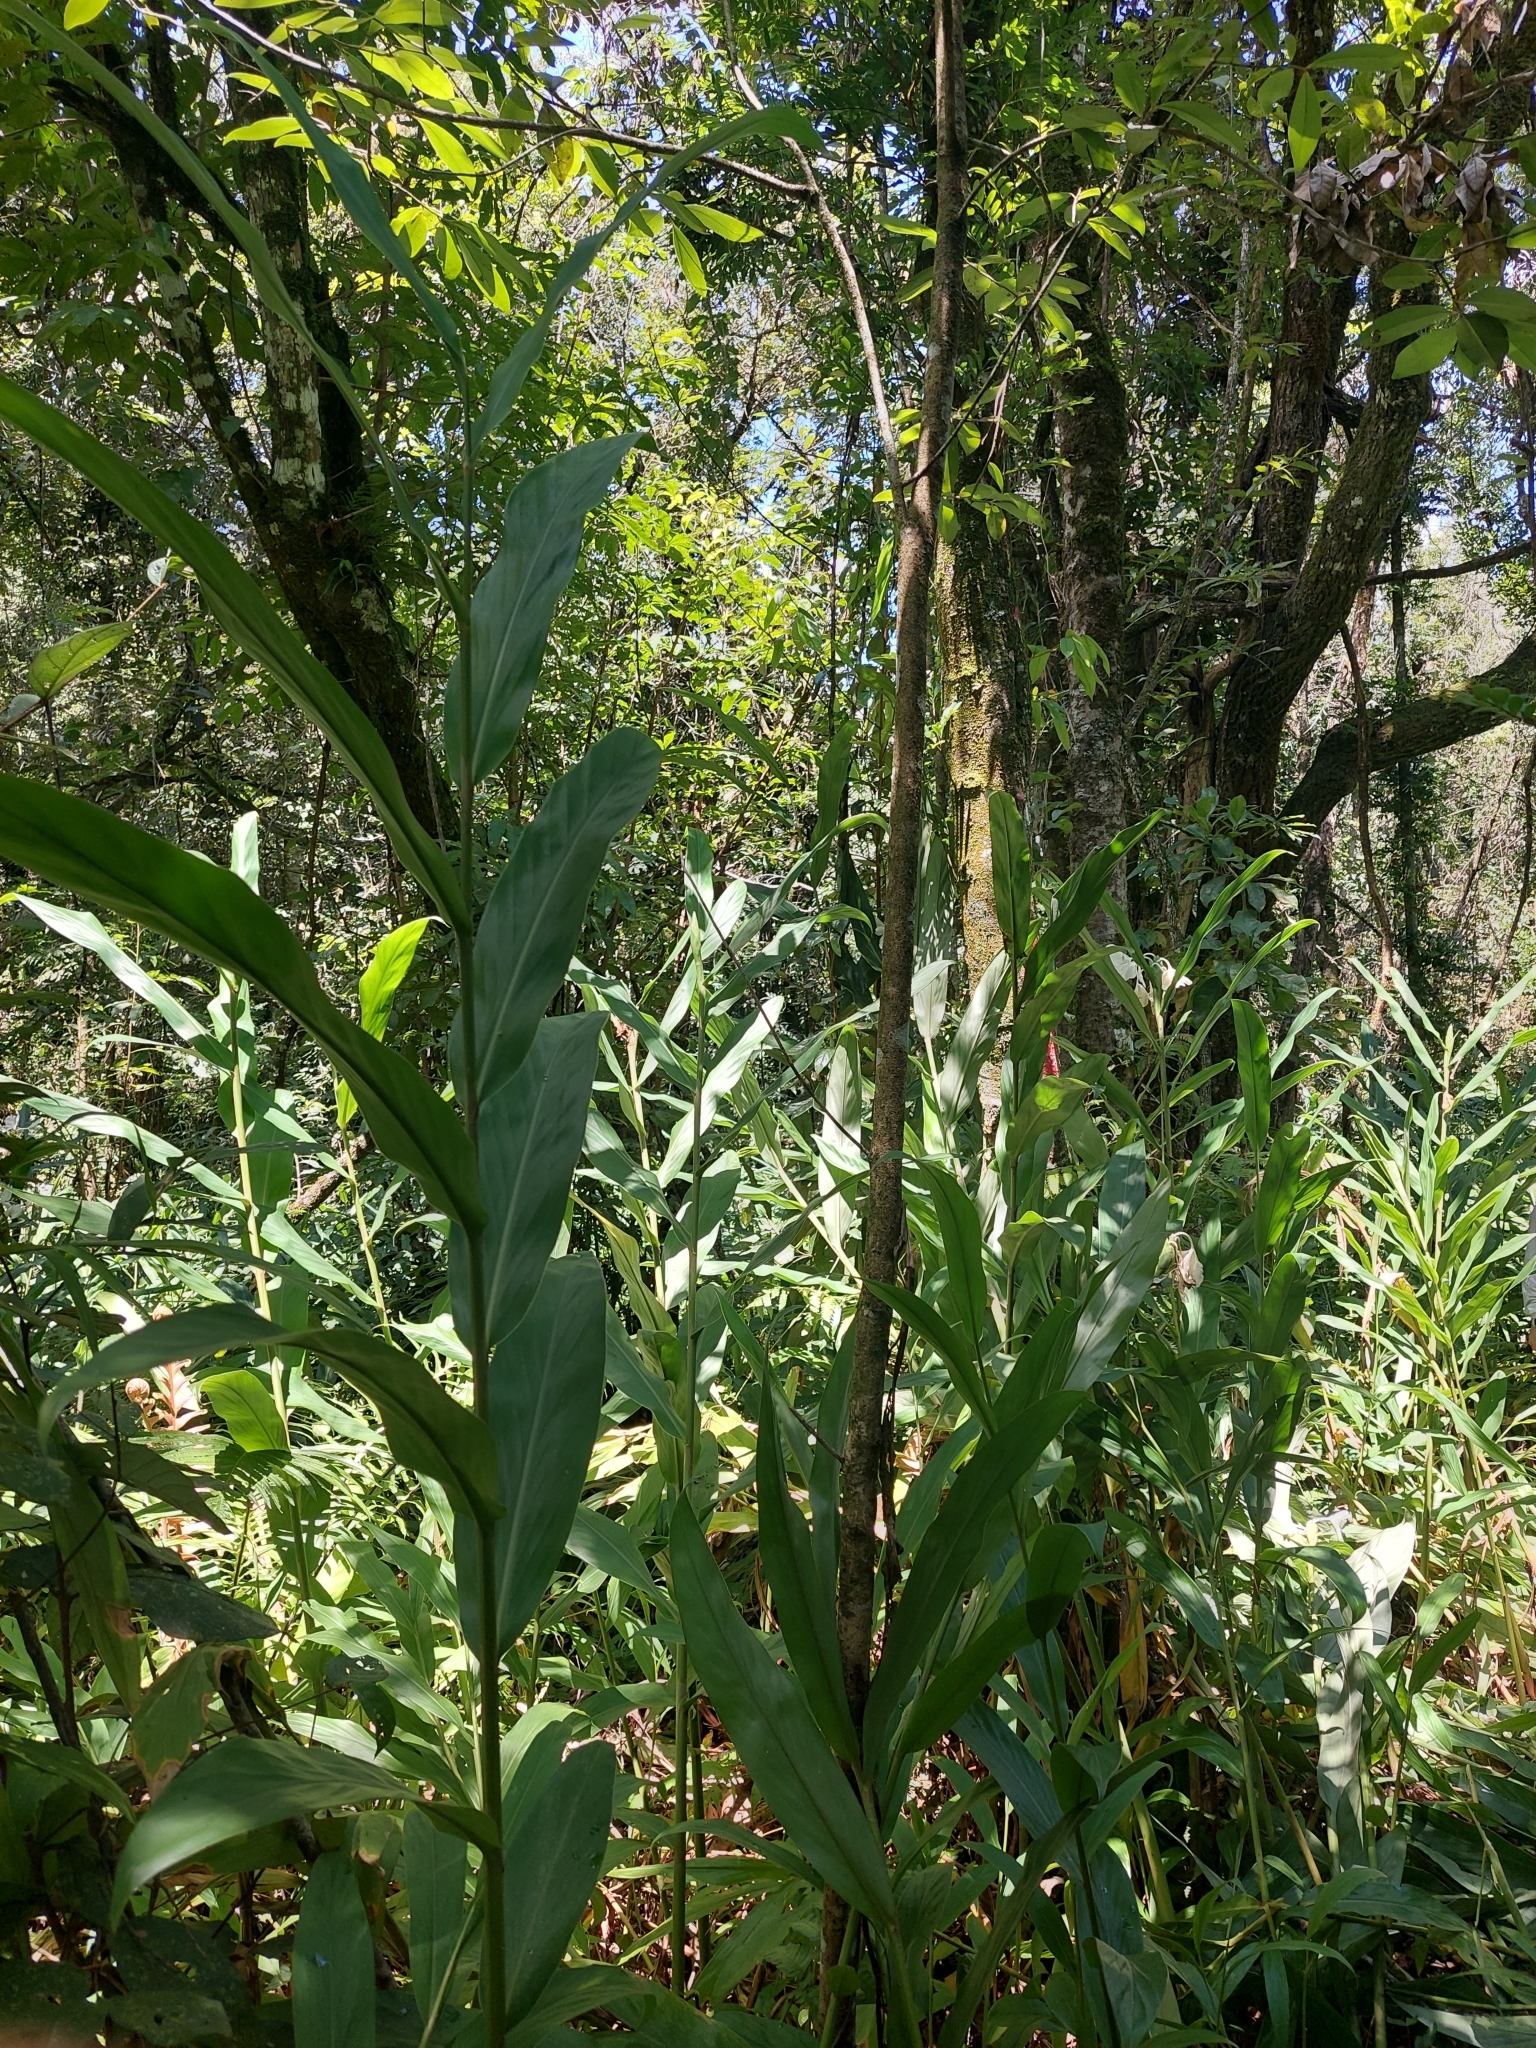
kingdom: Plantae
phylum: Tracheophyta
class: Liliopsida
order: Zingiberales
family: Zingiberaceae
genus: Hedychium
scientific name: Hedychium coronarium
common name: White garland-lily
